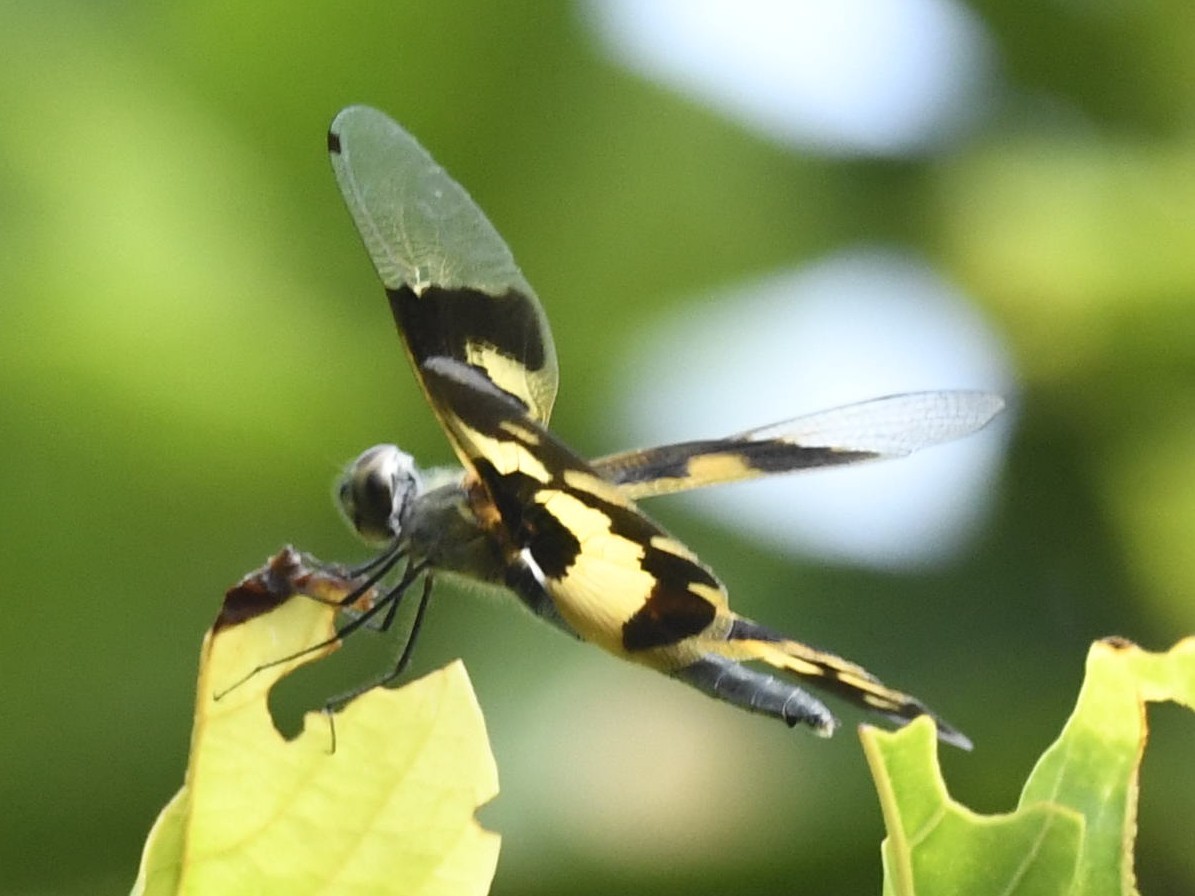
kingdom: Animalia
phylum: Arthropoda
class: Insecta
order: Odonata
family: Libellulidae
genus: Rhyothemis
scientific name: Rhyothemis variegata
